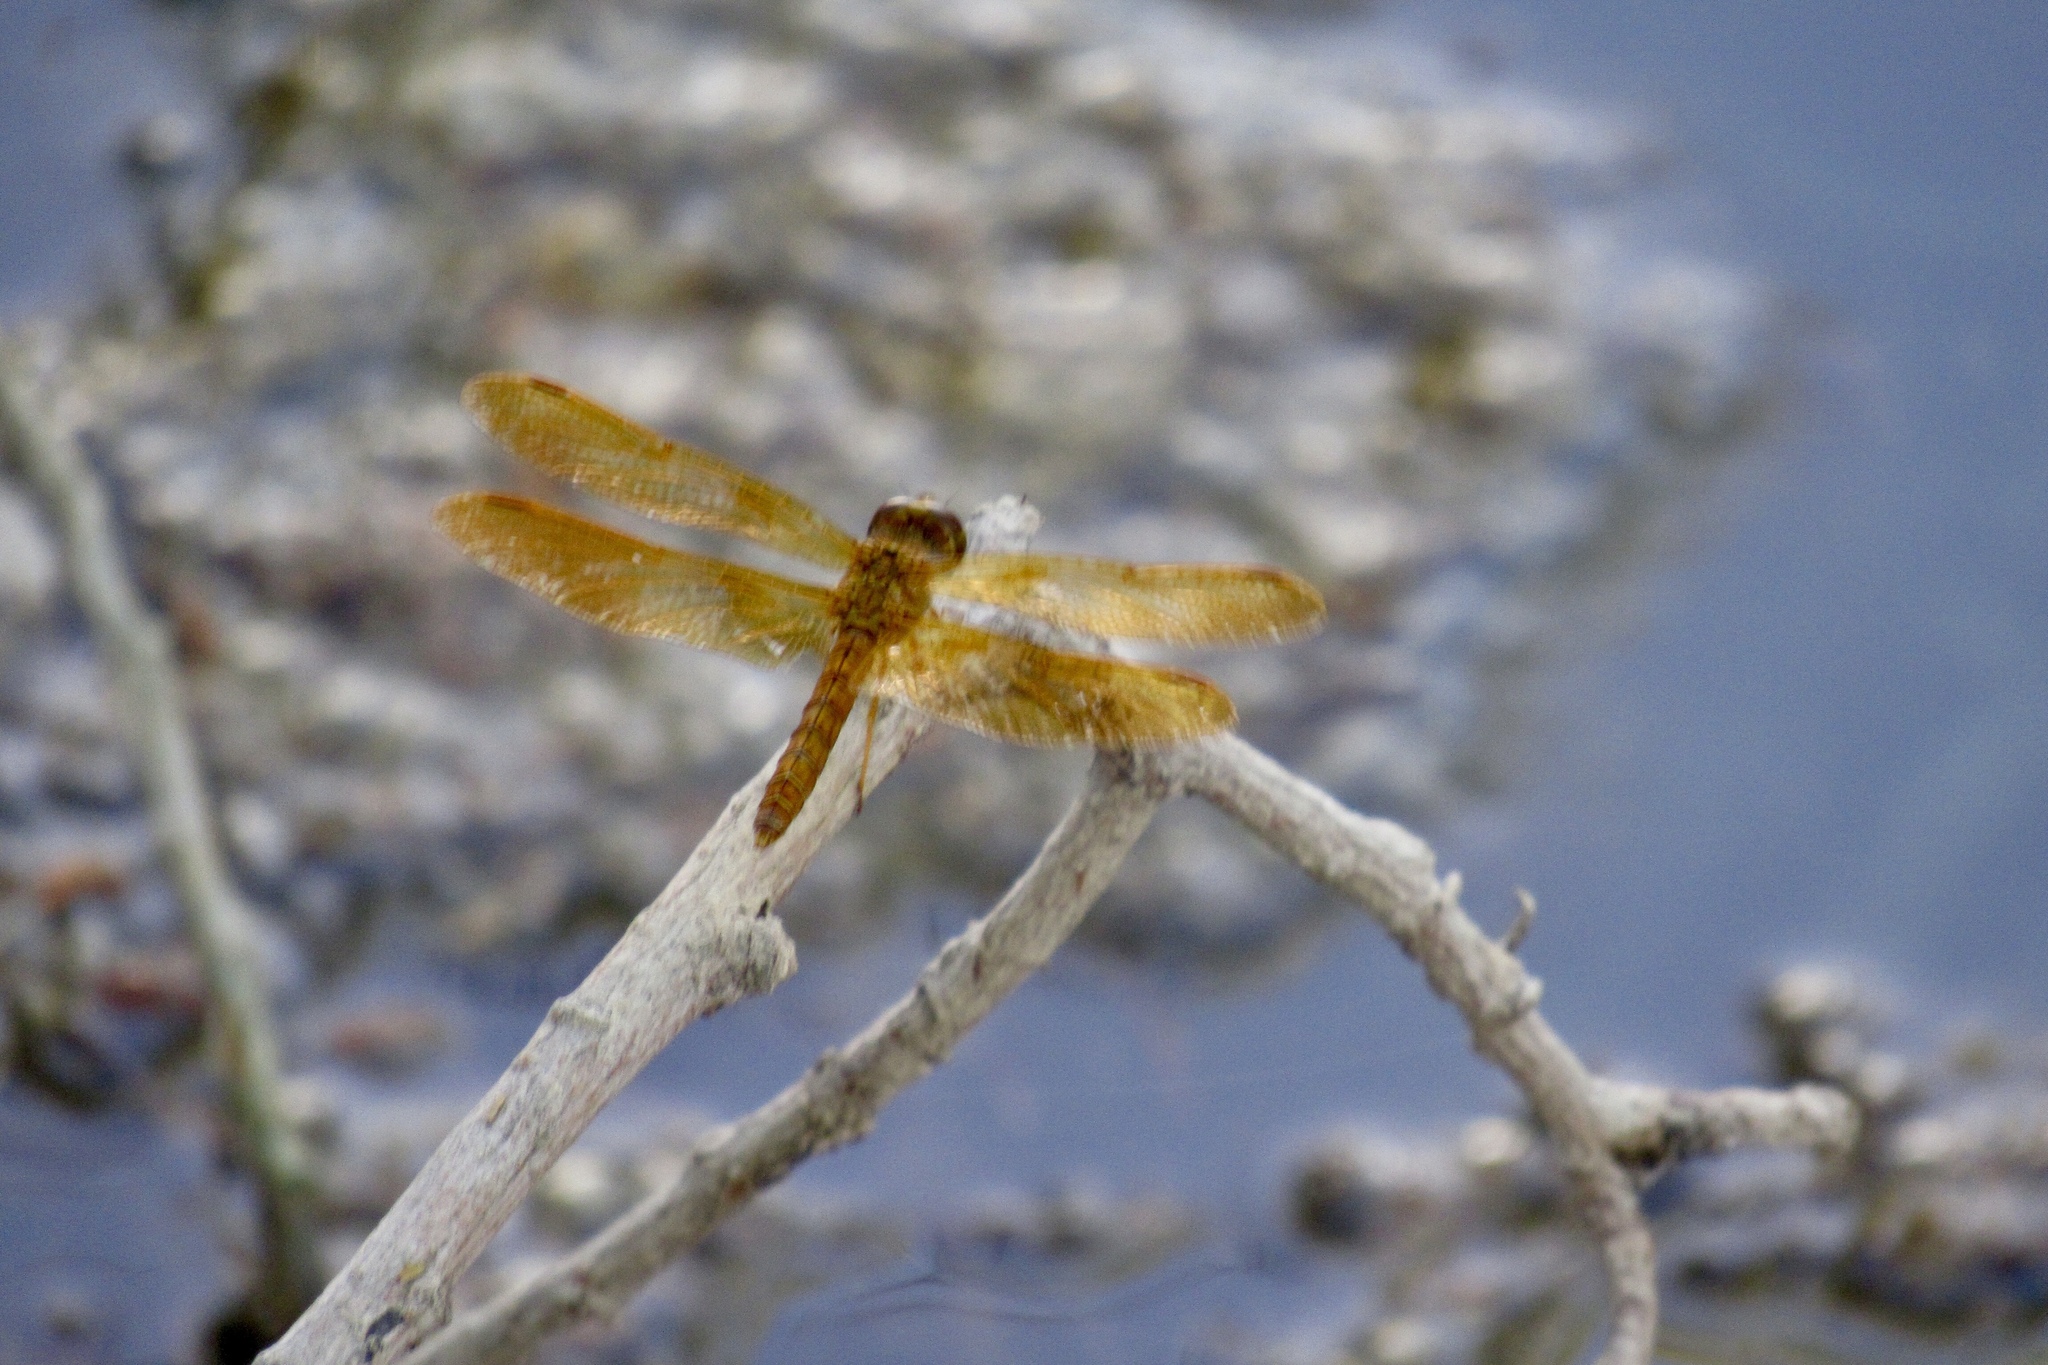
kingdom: Animalia
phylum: Arthropoda
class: Insecta
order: Odonata
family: Libellulidae
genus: Perithemis
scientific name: Perithemis intensa
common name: Mexican amberwing
